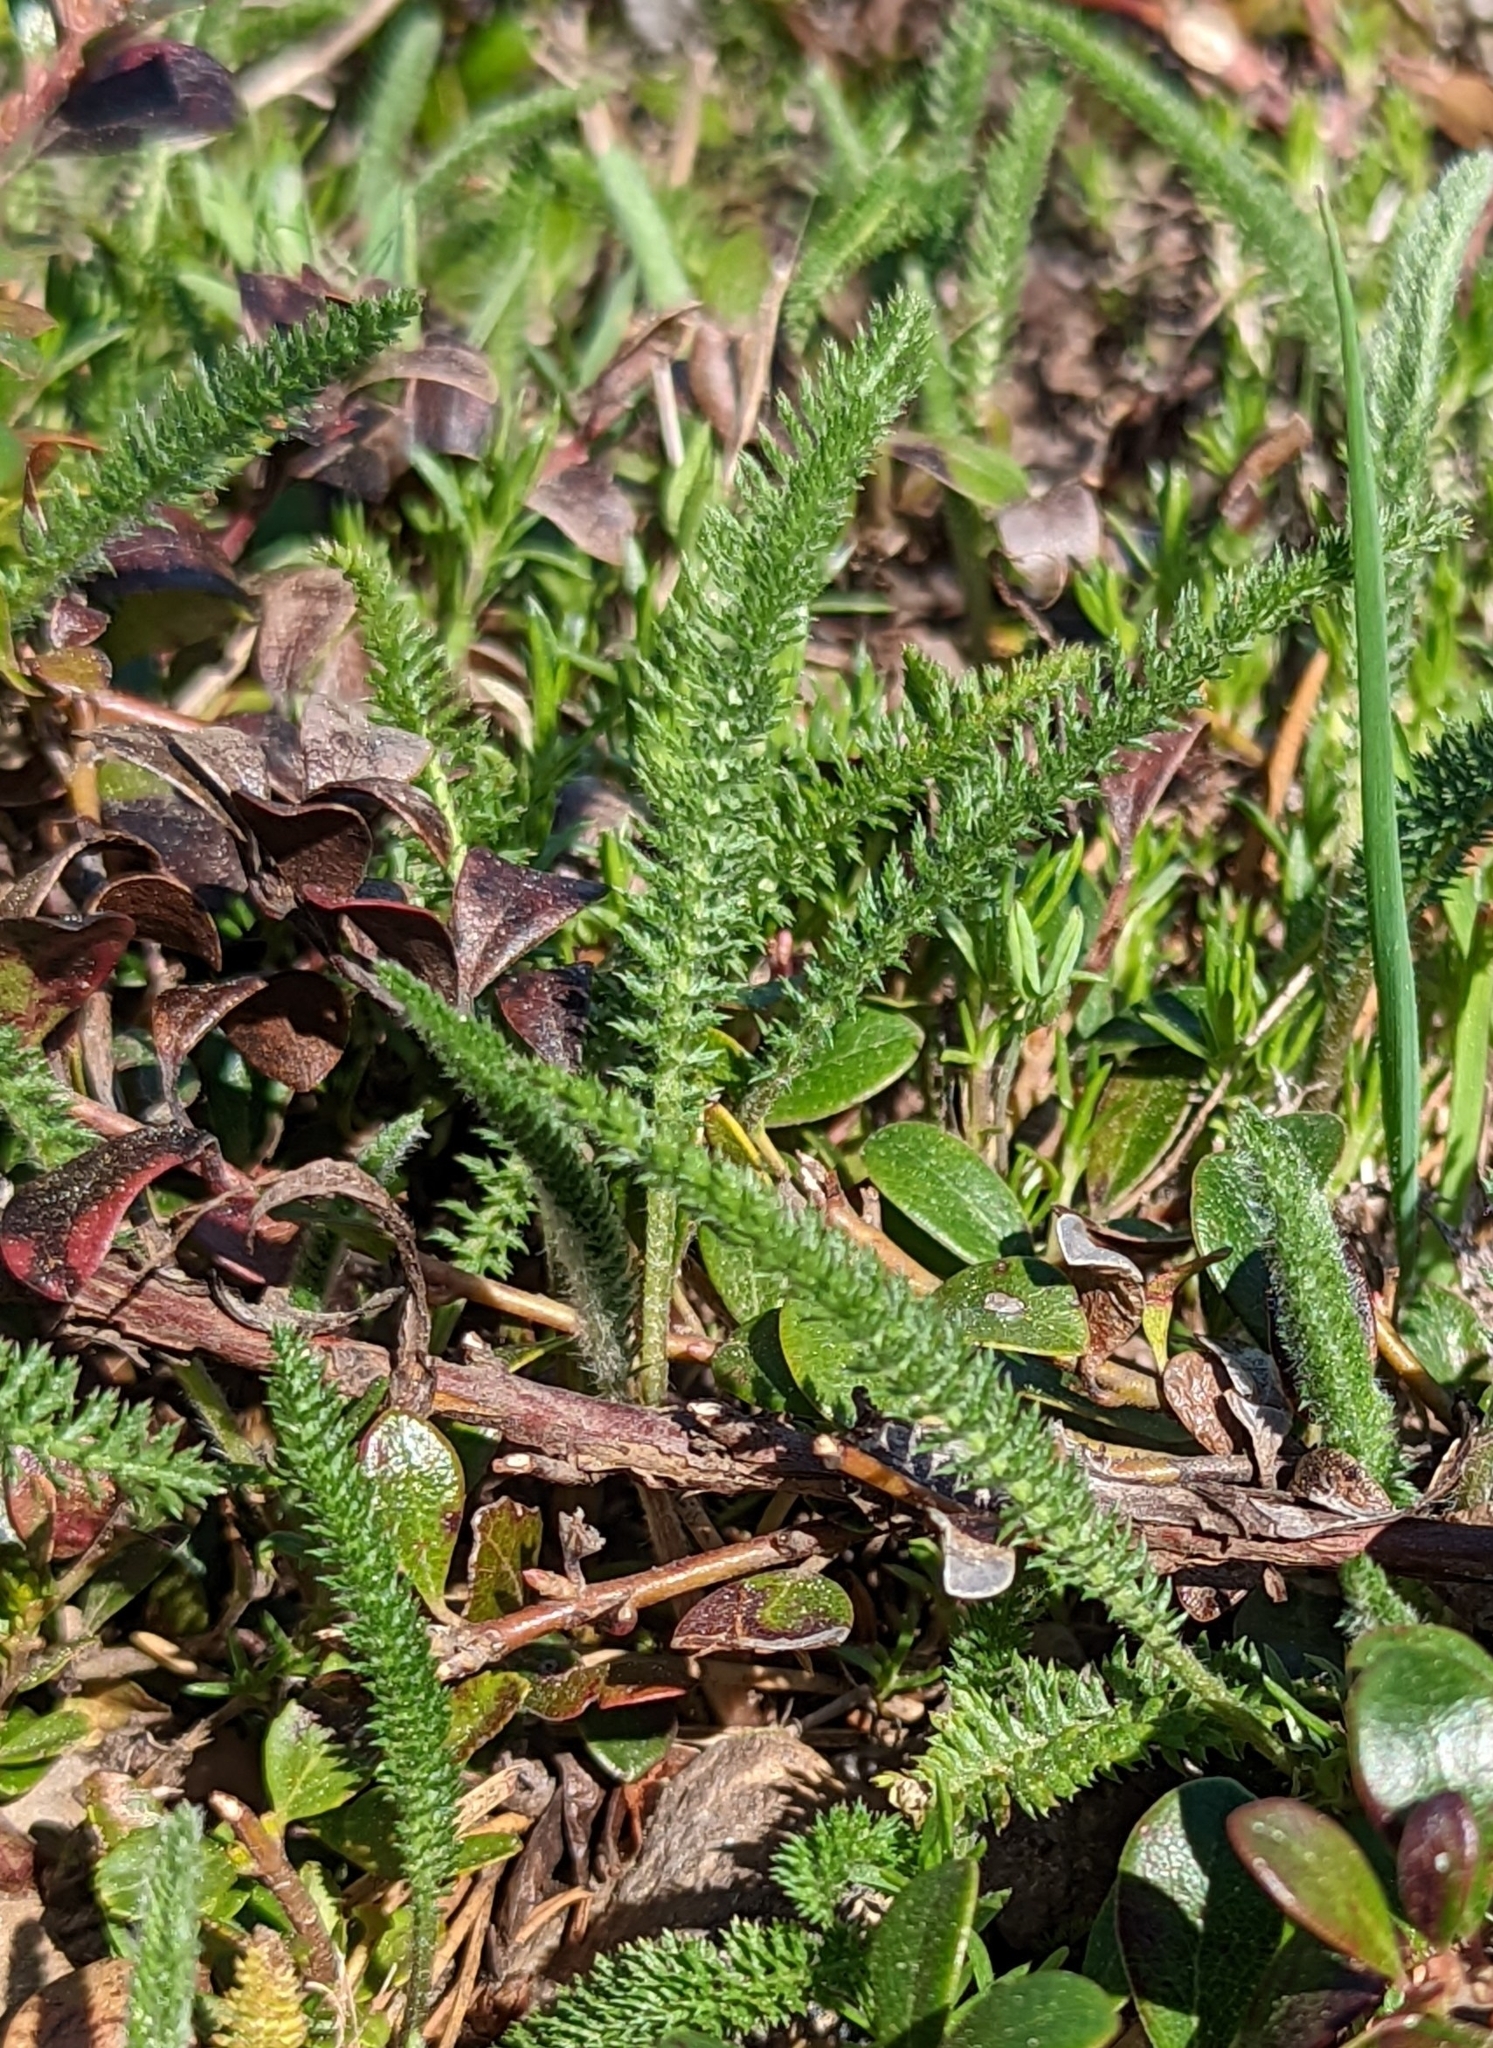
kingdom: Plantae
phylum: Tracheophyta
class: Magnoliopsida
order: Asterales
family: Asteraceae
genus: Achillea
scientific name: Achillea millefolium
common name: Yarrow
